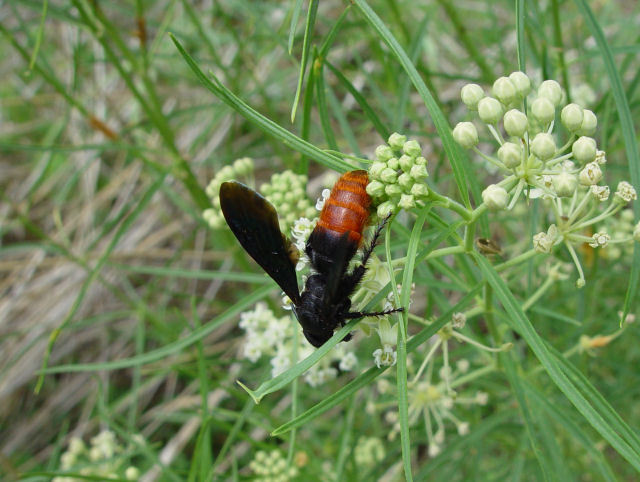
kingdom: Plantae
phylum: Tracheophyta
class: Magnoliopsida
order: Gentianales
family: Apocynaceae
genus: Asclepias
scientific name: Asclepias subverticillata
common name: Horsetail milkweed
